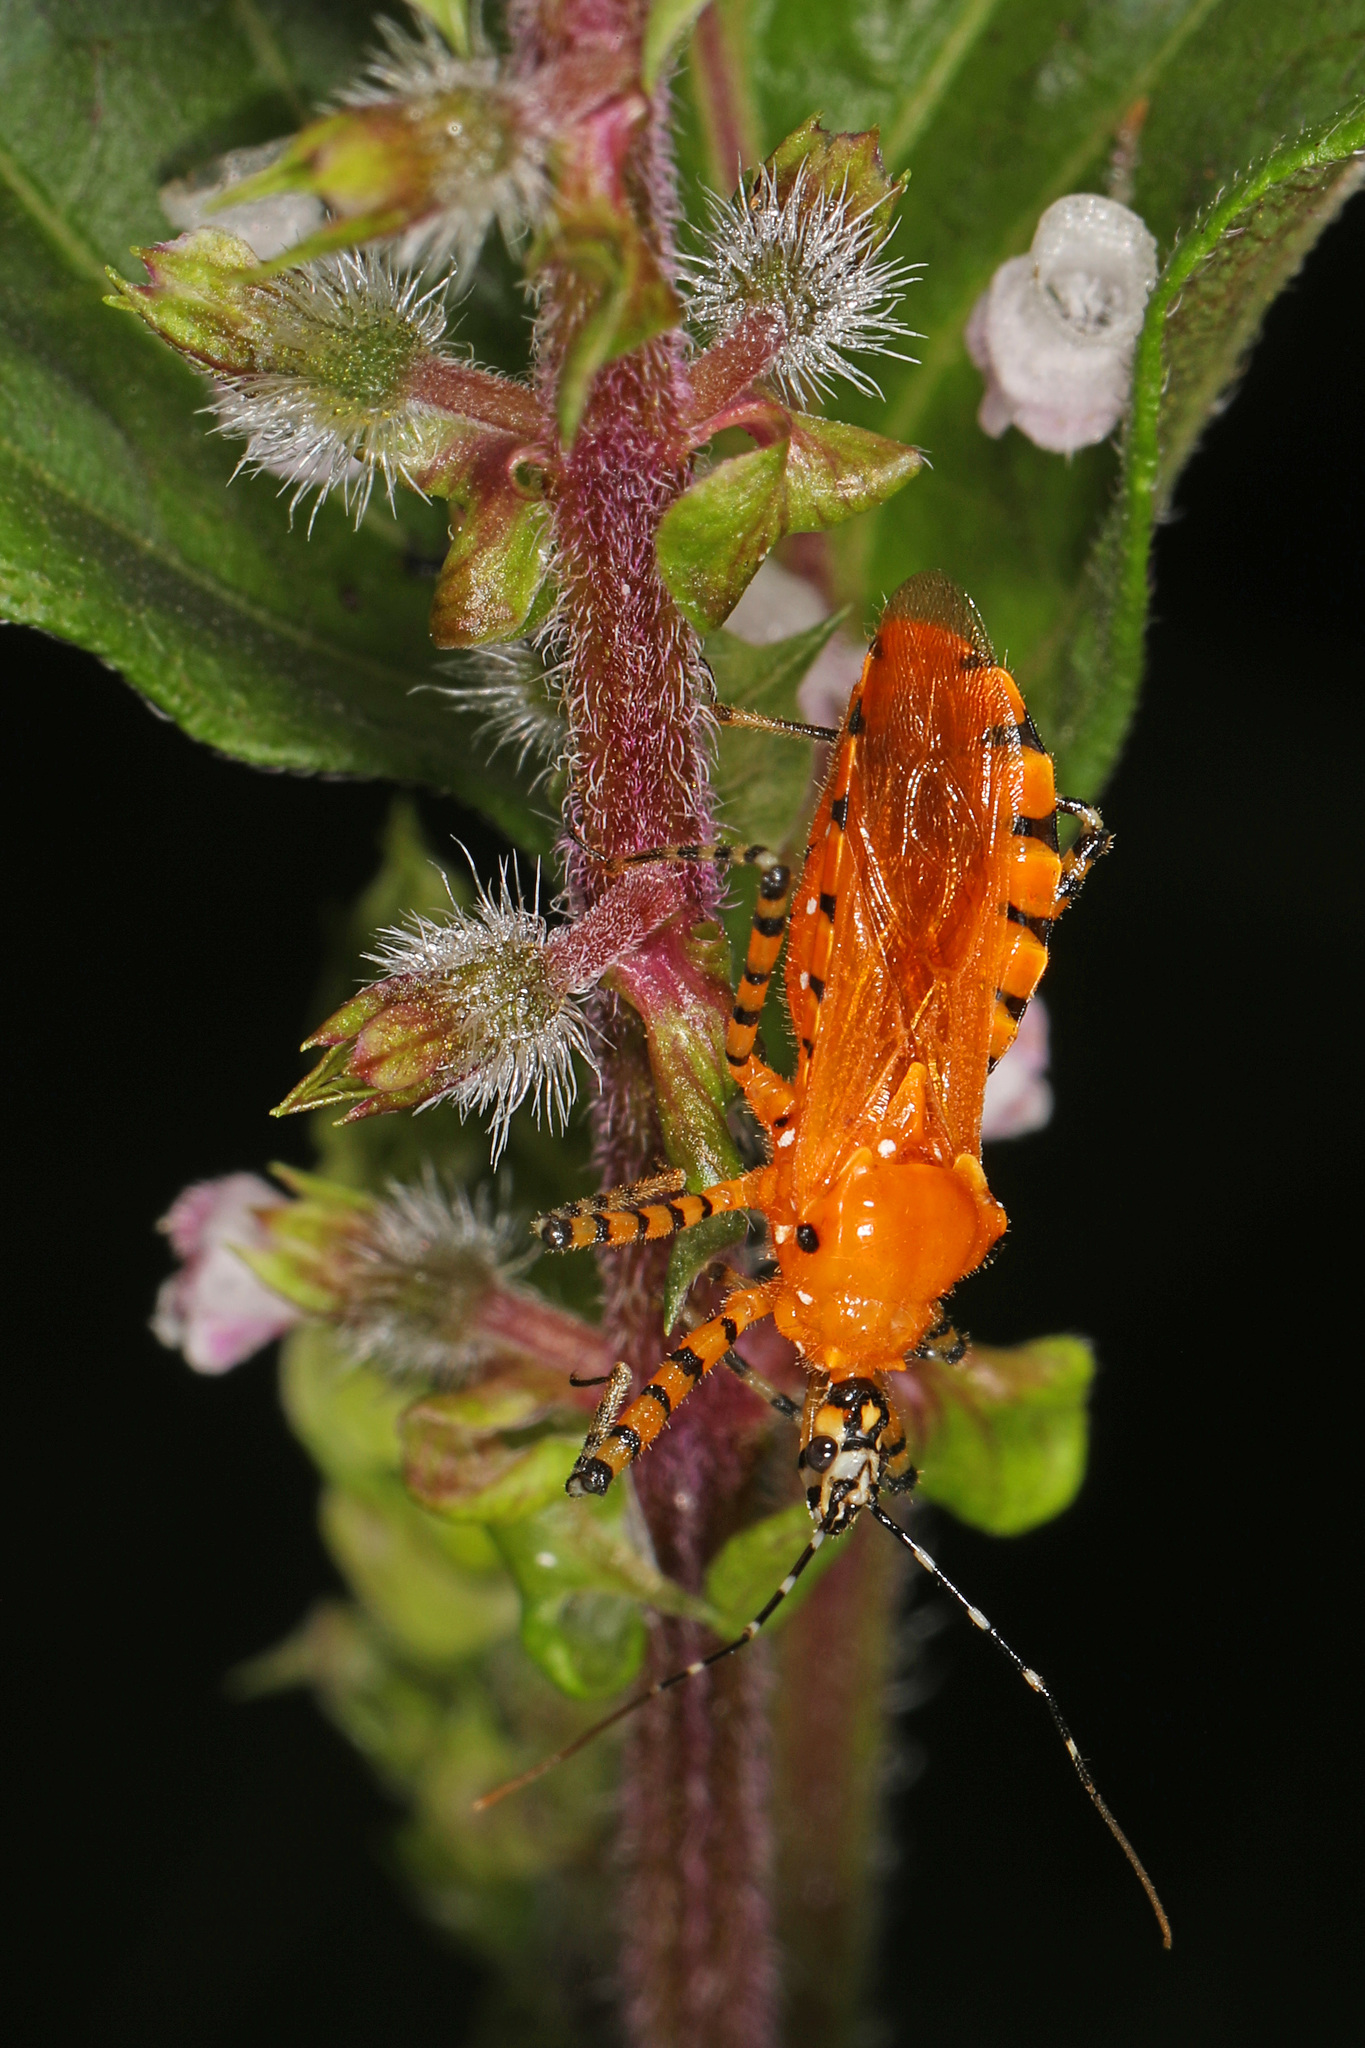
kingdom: Animalia
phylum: Arthropoda
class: Insecta
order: Hemiptera
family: Reduviidae
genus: Pselliopus
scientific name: Pselliopus barberi
